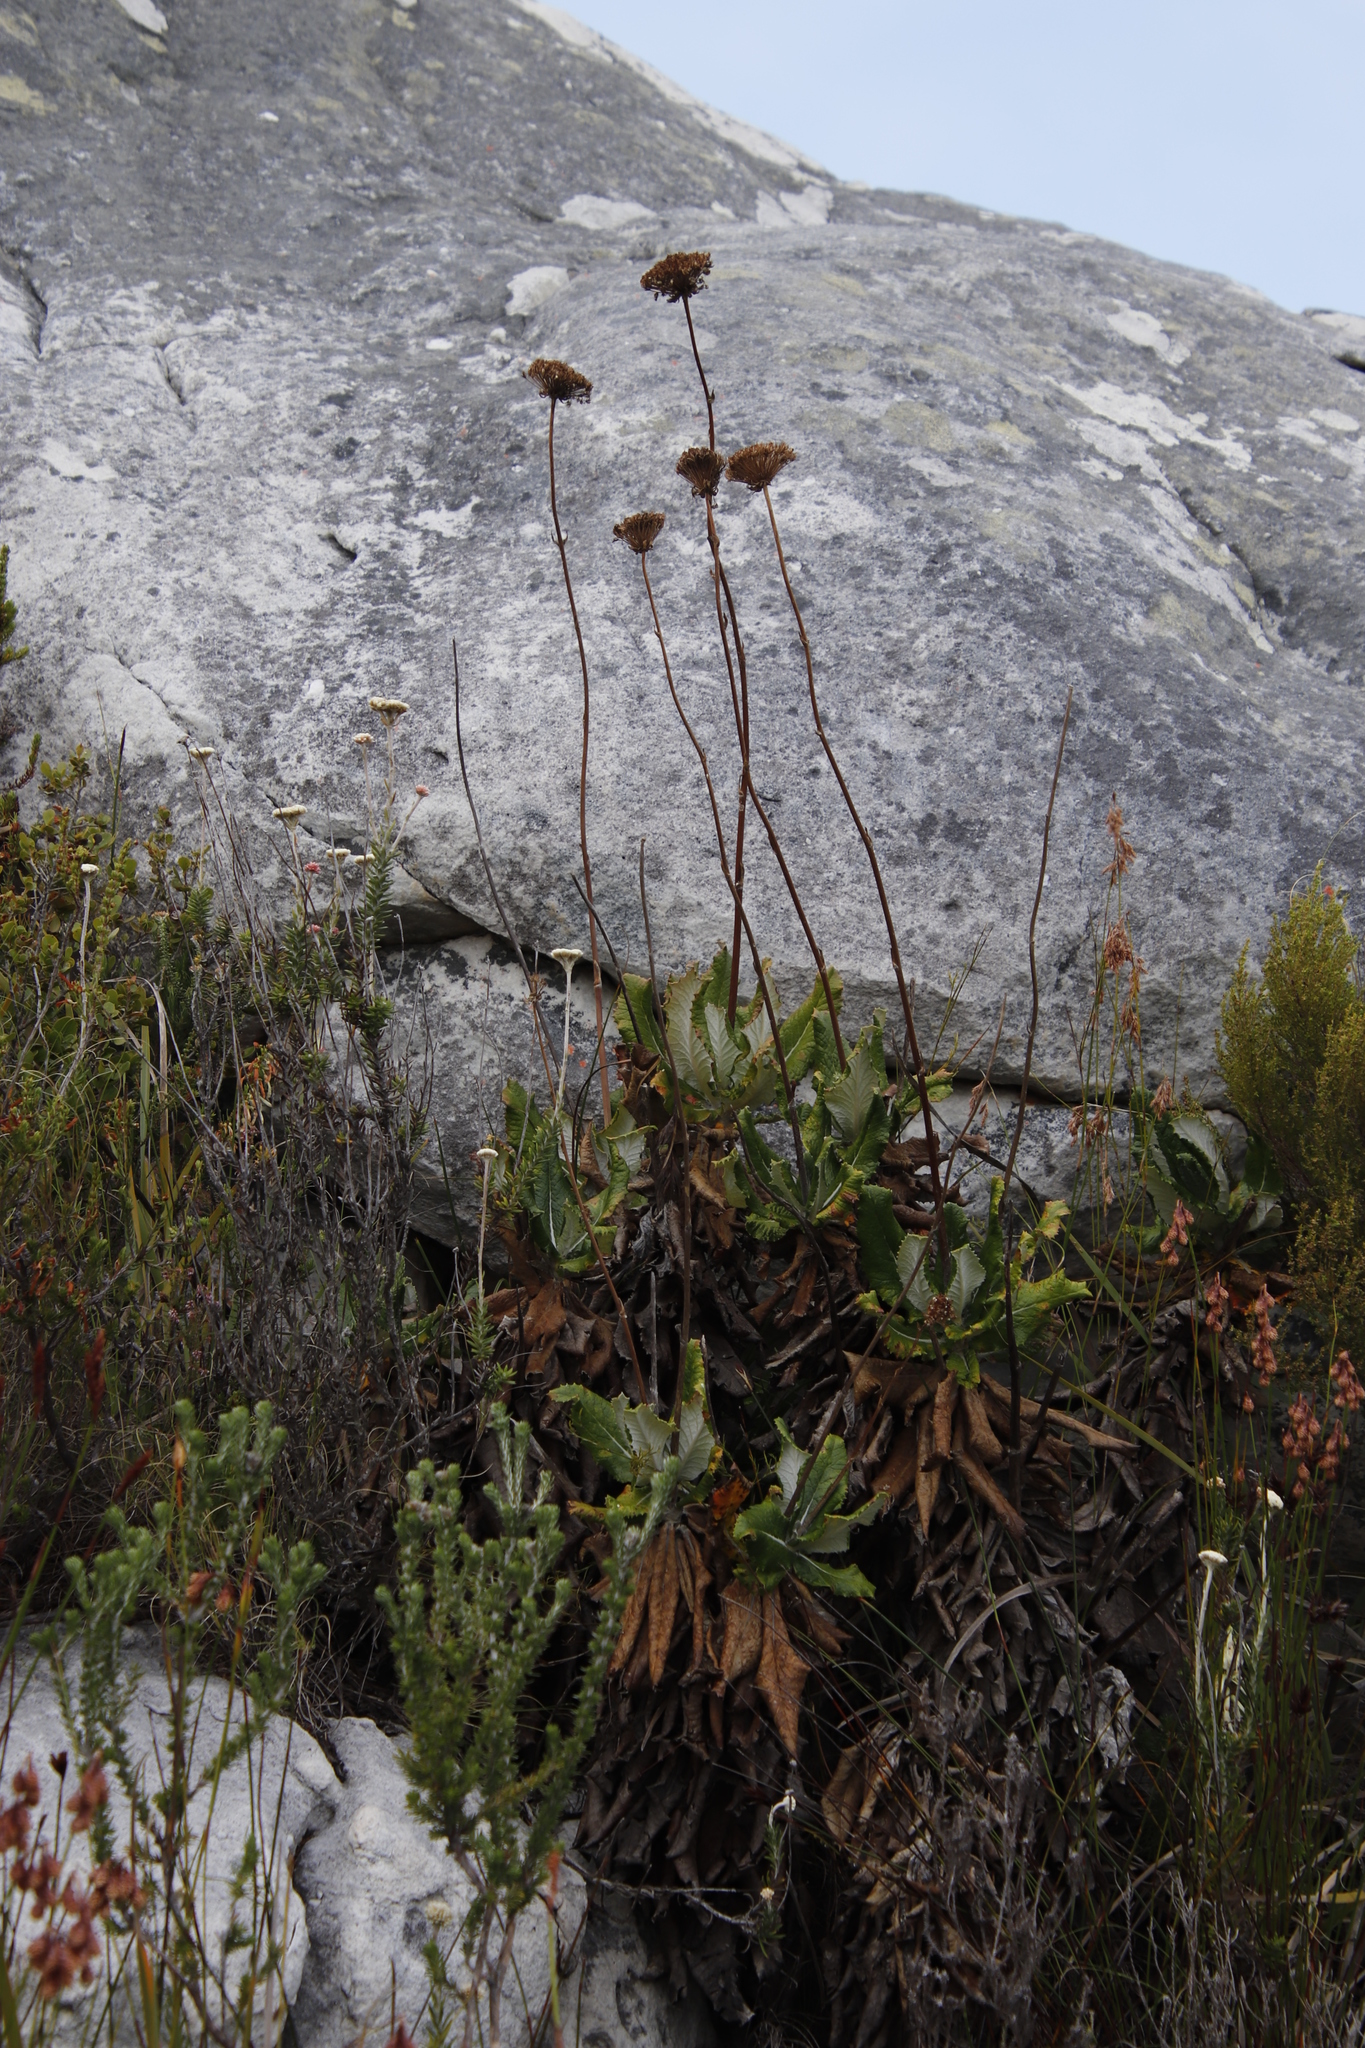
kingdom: Plantae
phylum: Tracheophyta
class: Magnoliopsida
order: Apiales
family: Apiaceae
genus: Hermas
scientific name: Hermas villosa
